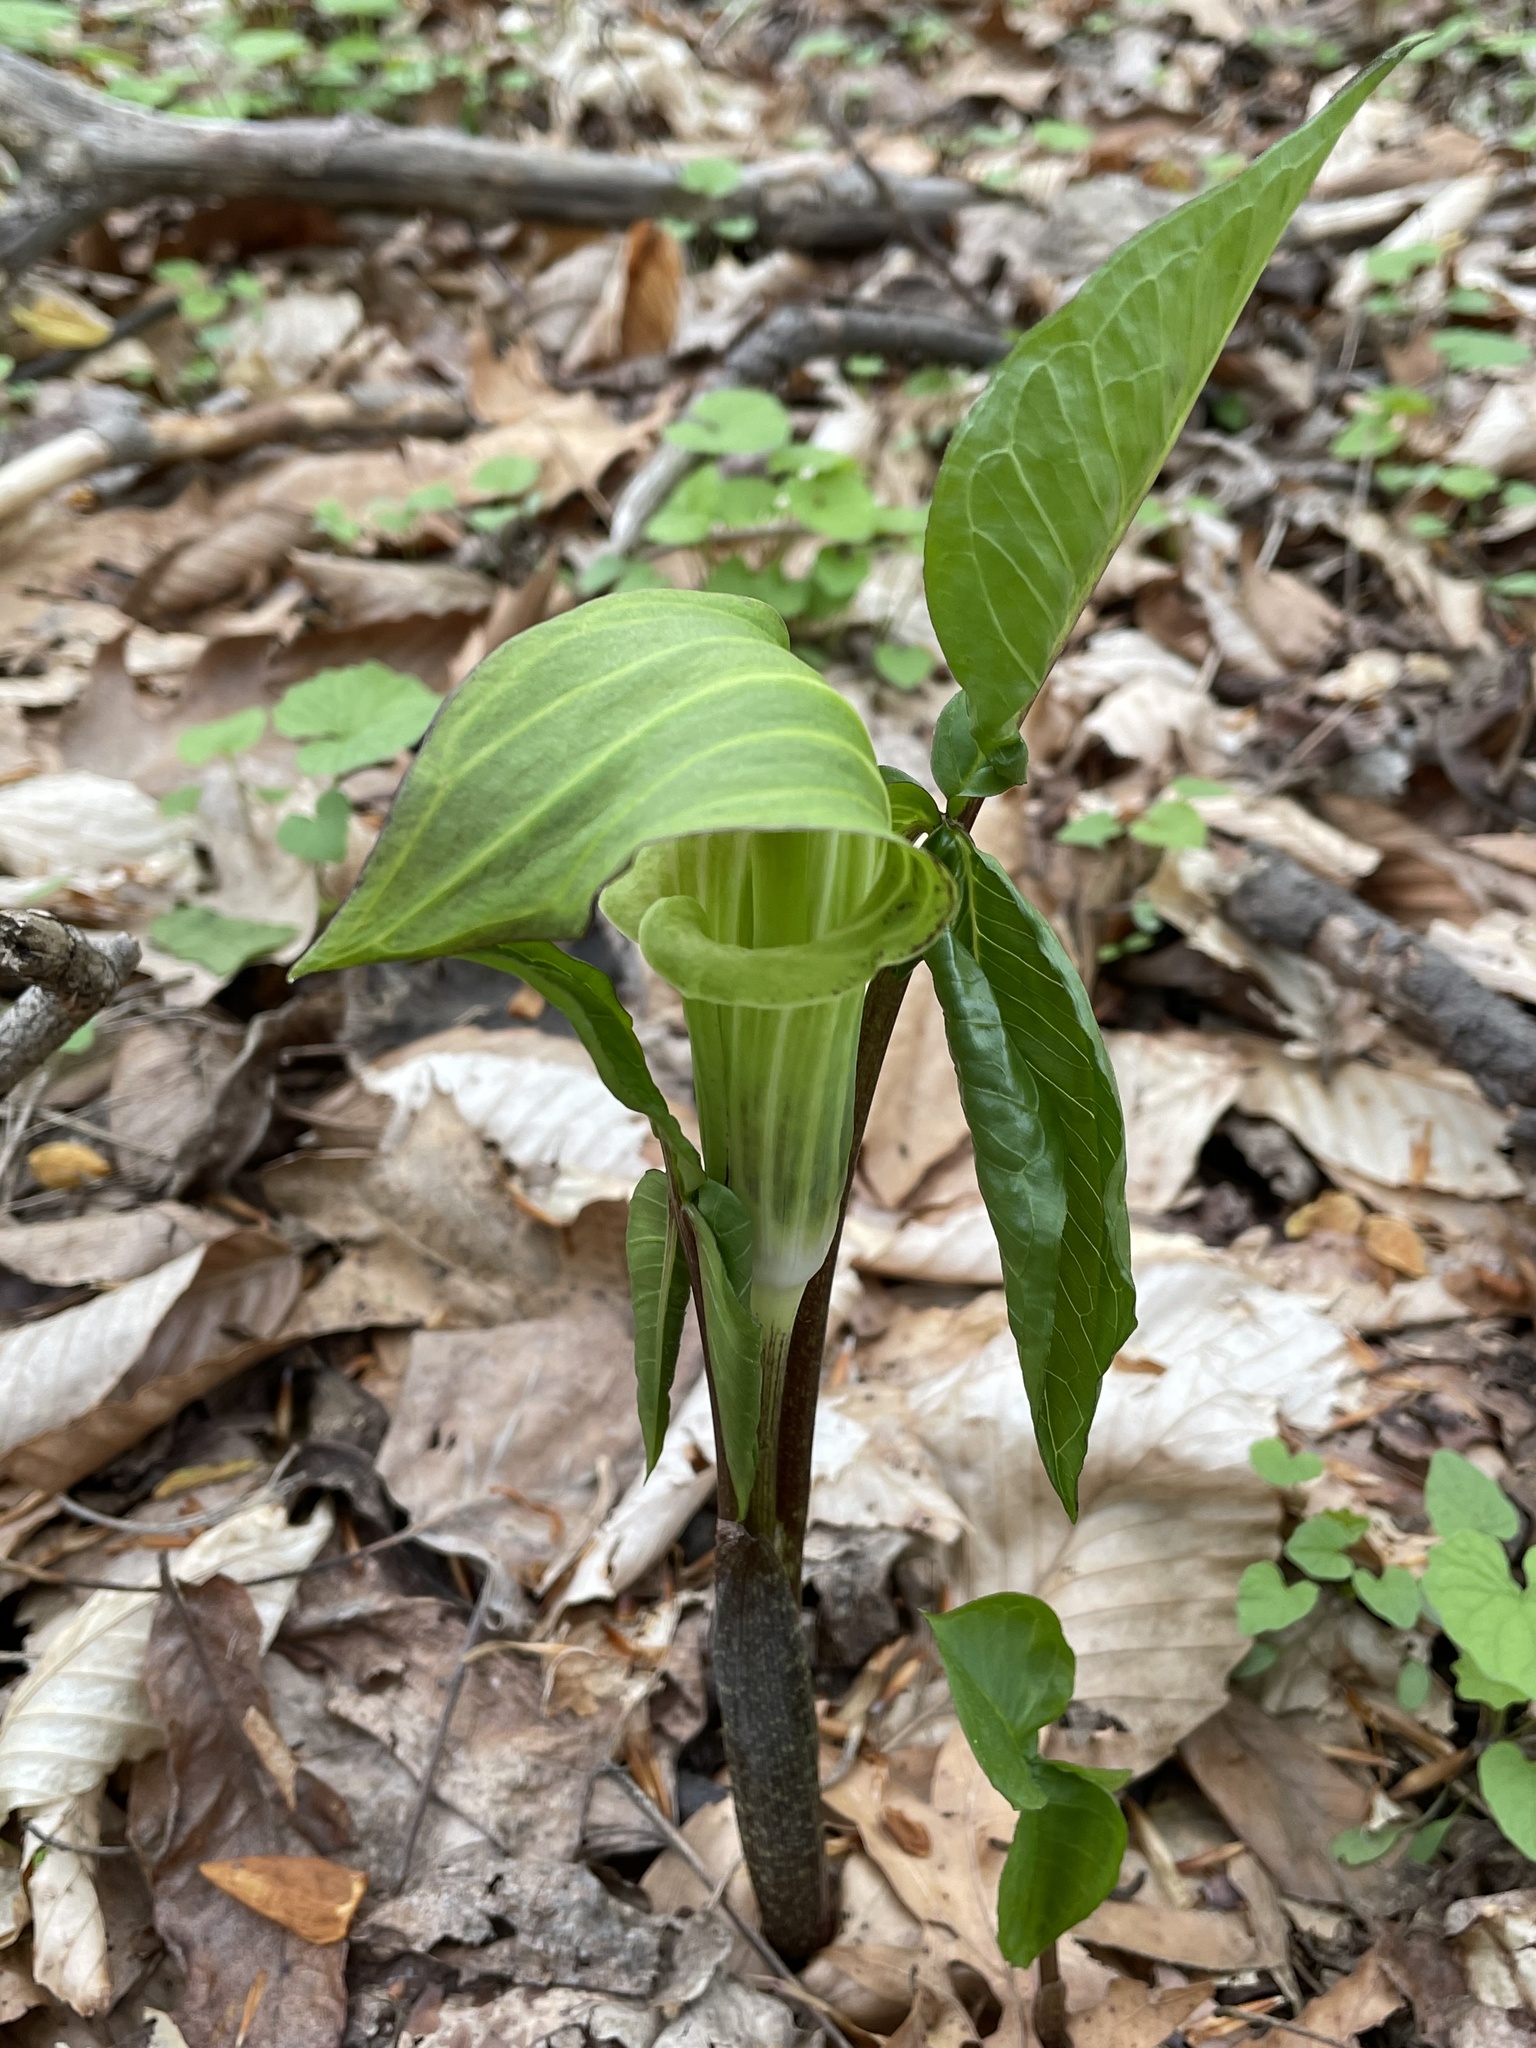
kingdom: Plantae
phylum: Tracheophyta
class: Liliopsida
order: Alismatales
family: Araceae
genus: Arisaema
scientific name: Arisaema triphyllum
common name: Jack-in-the-pulpit
